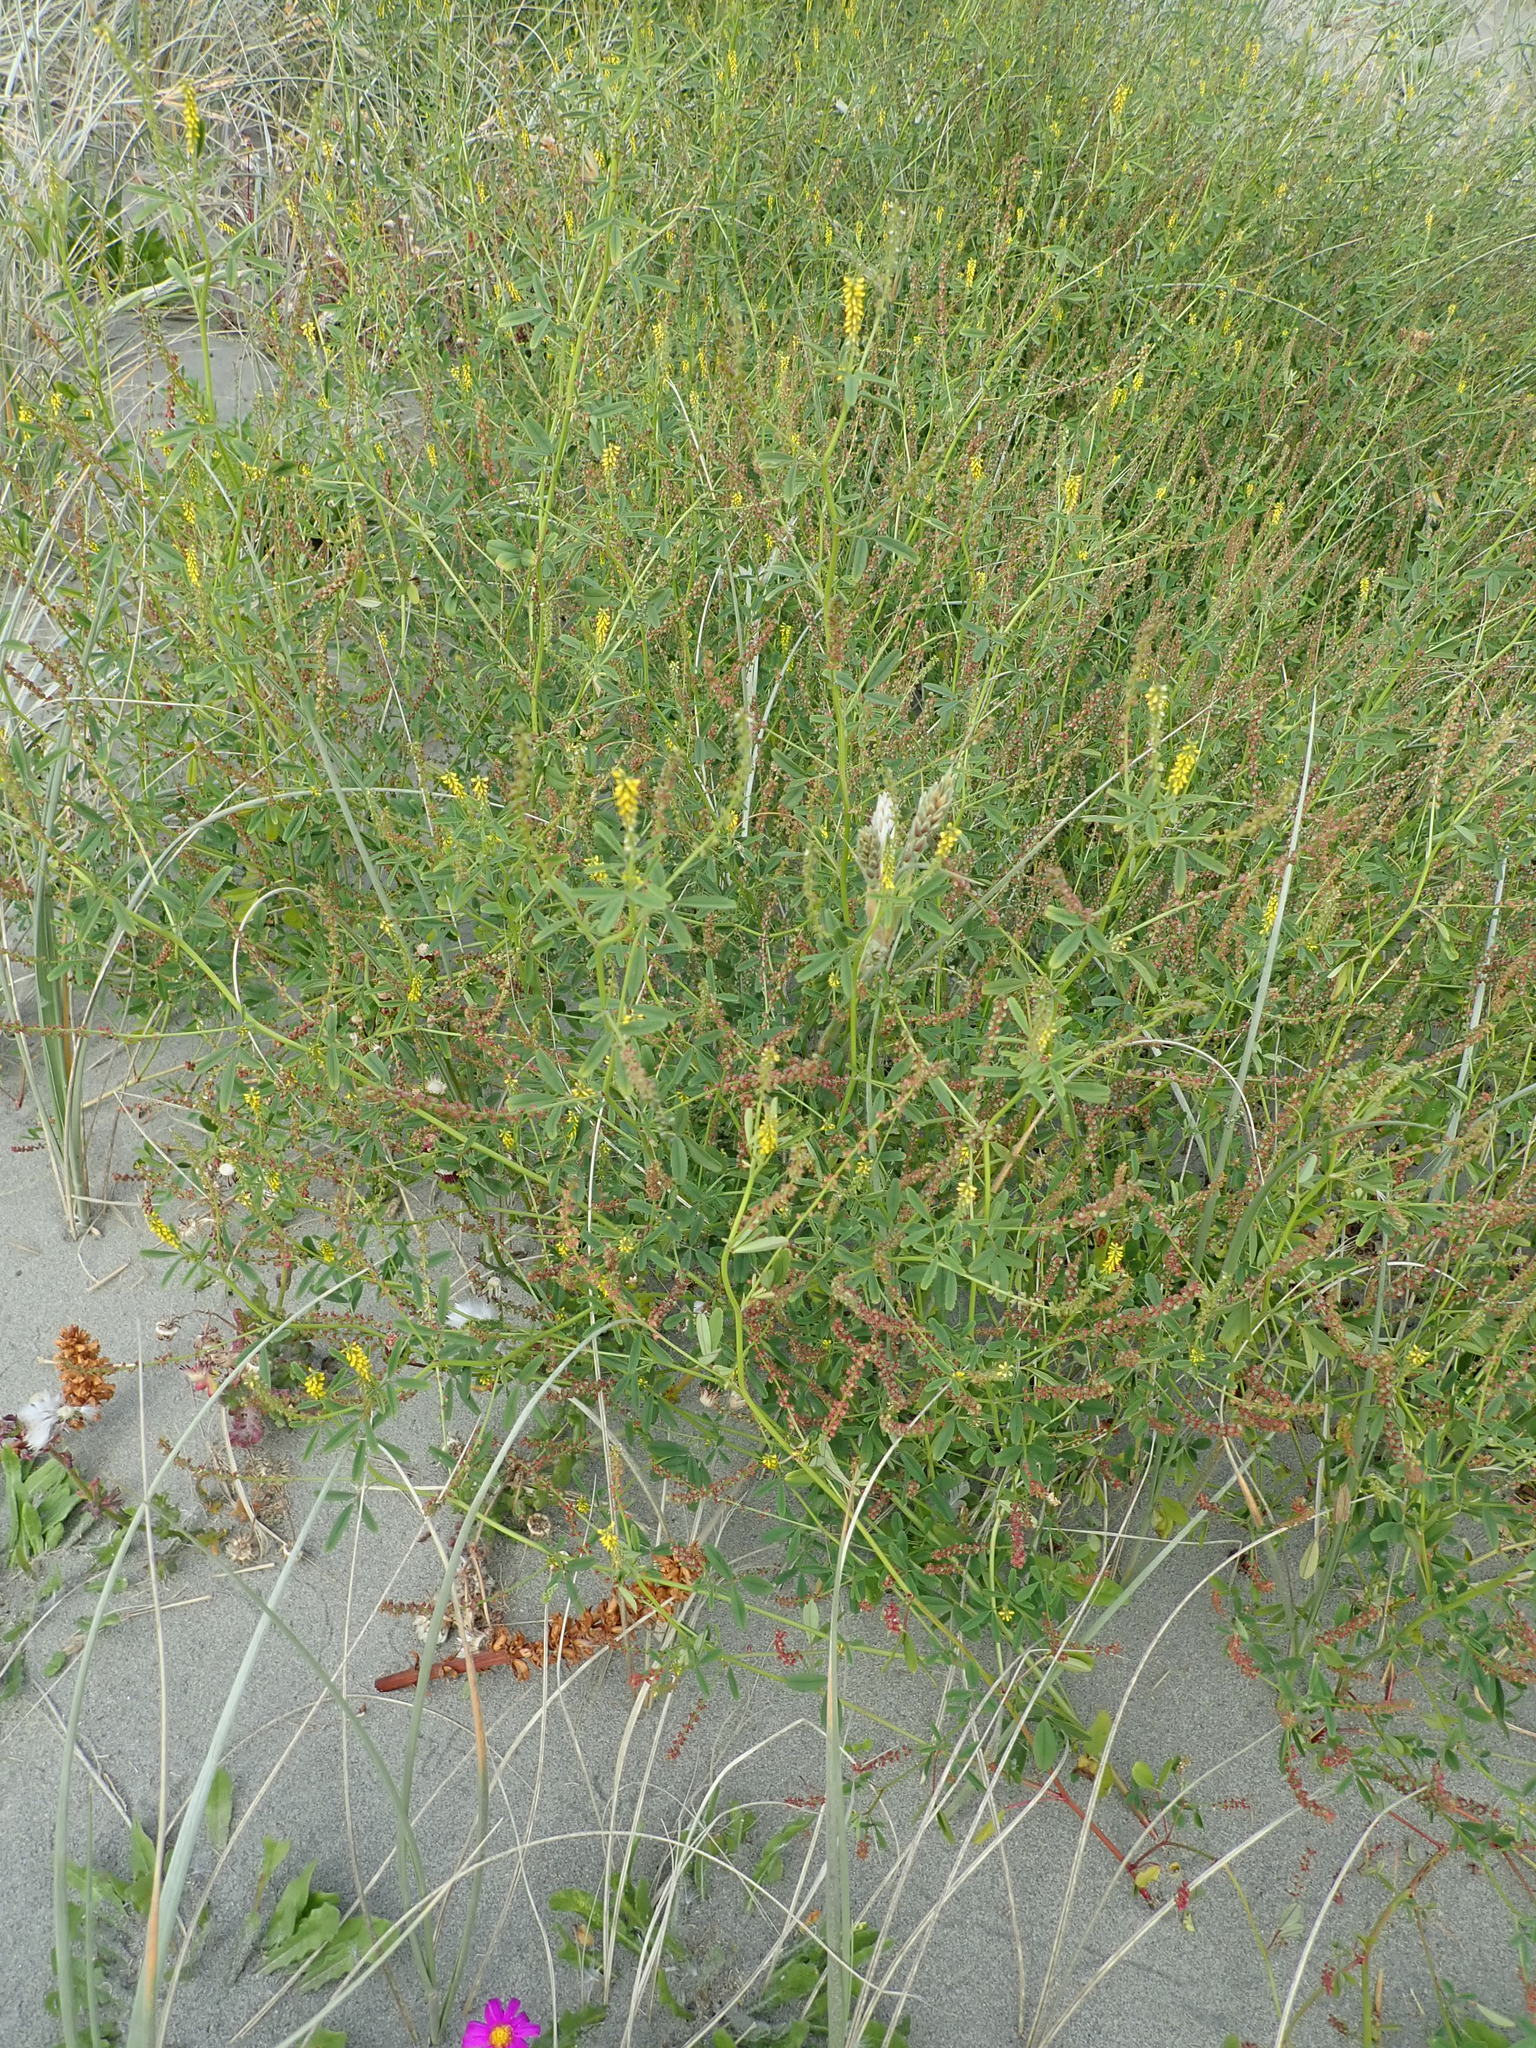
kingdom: Plantae
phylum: Tracheophyta
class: Magnoliopsida
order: Fabales
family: Fabaceae
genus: Melilotus
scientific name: Melilotus indicus
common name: Small melilot
